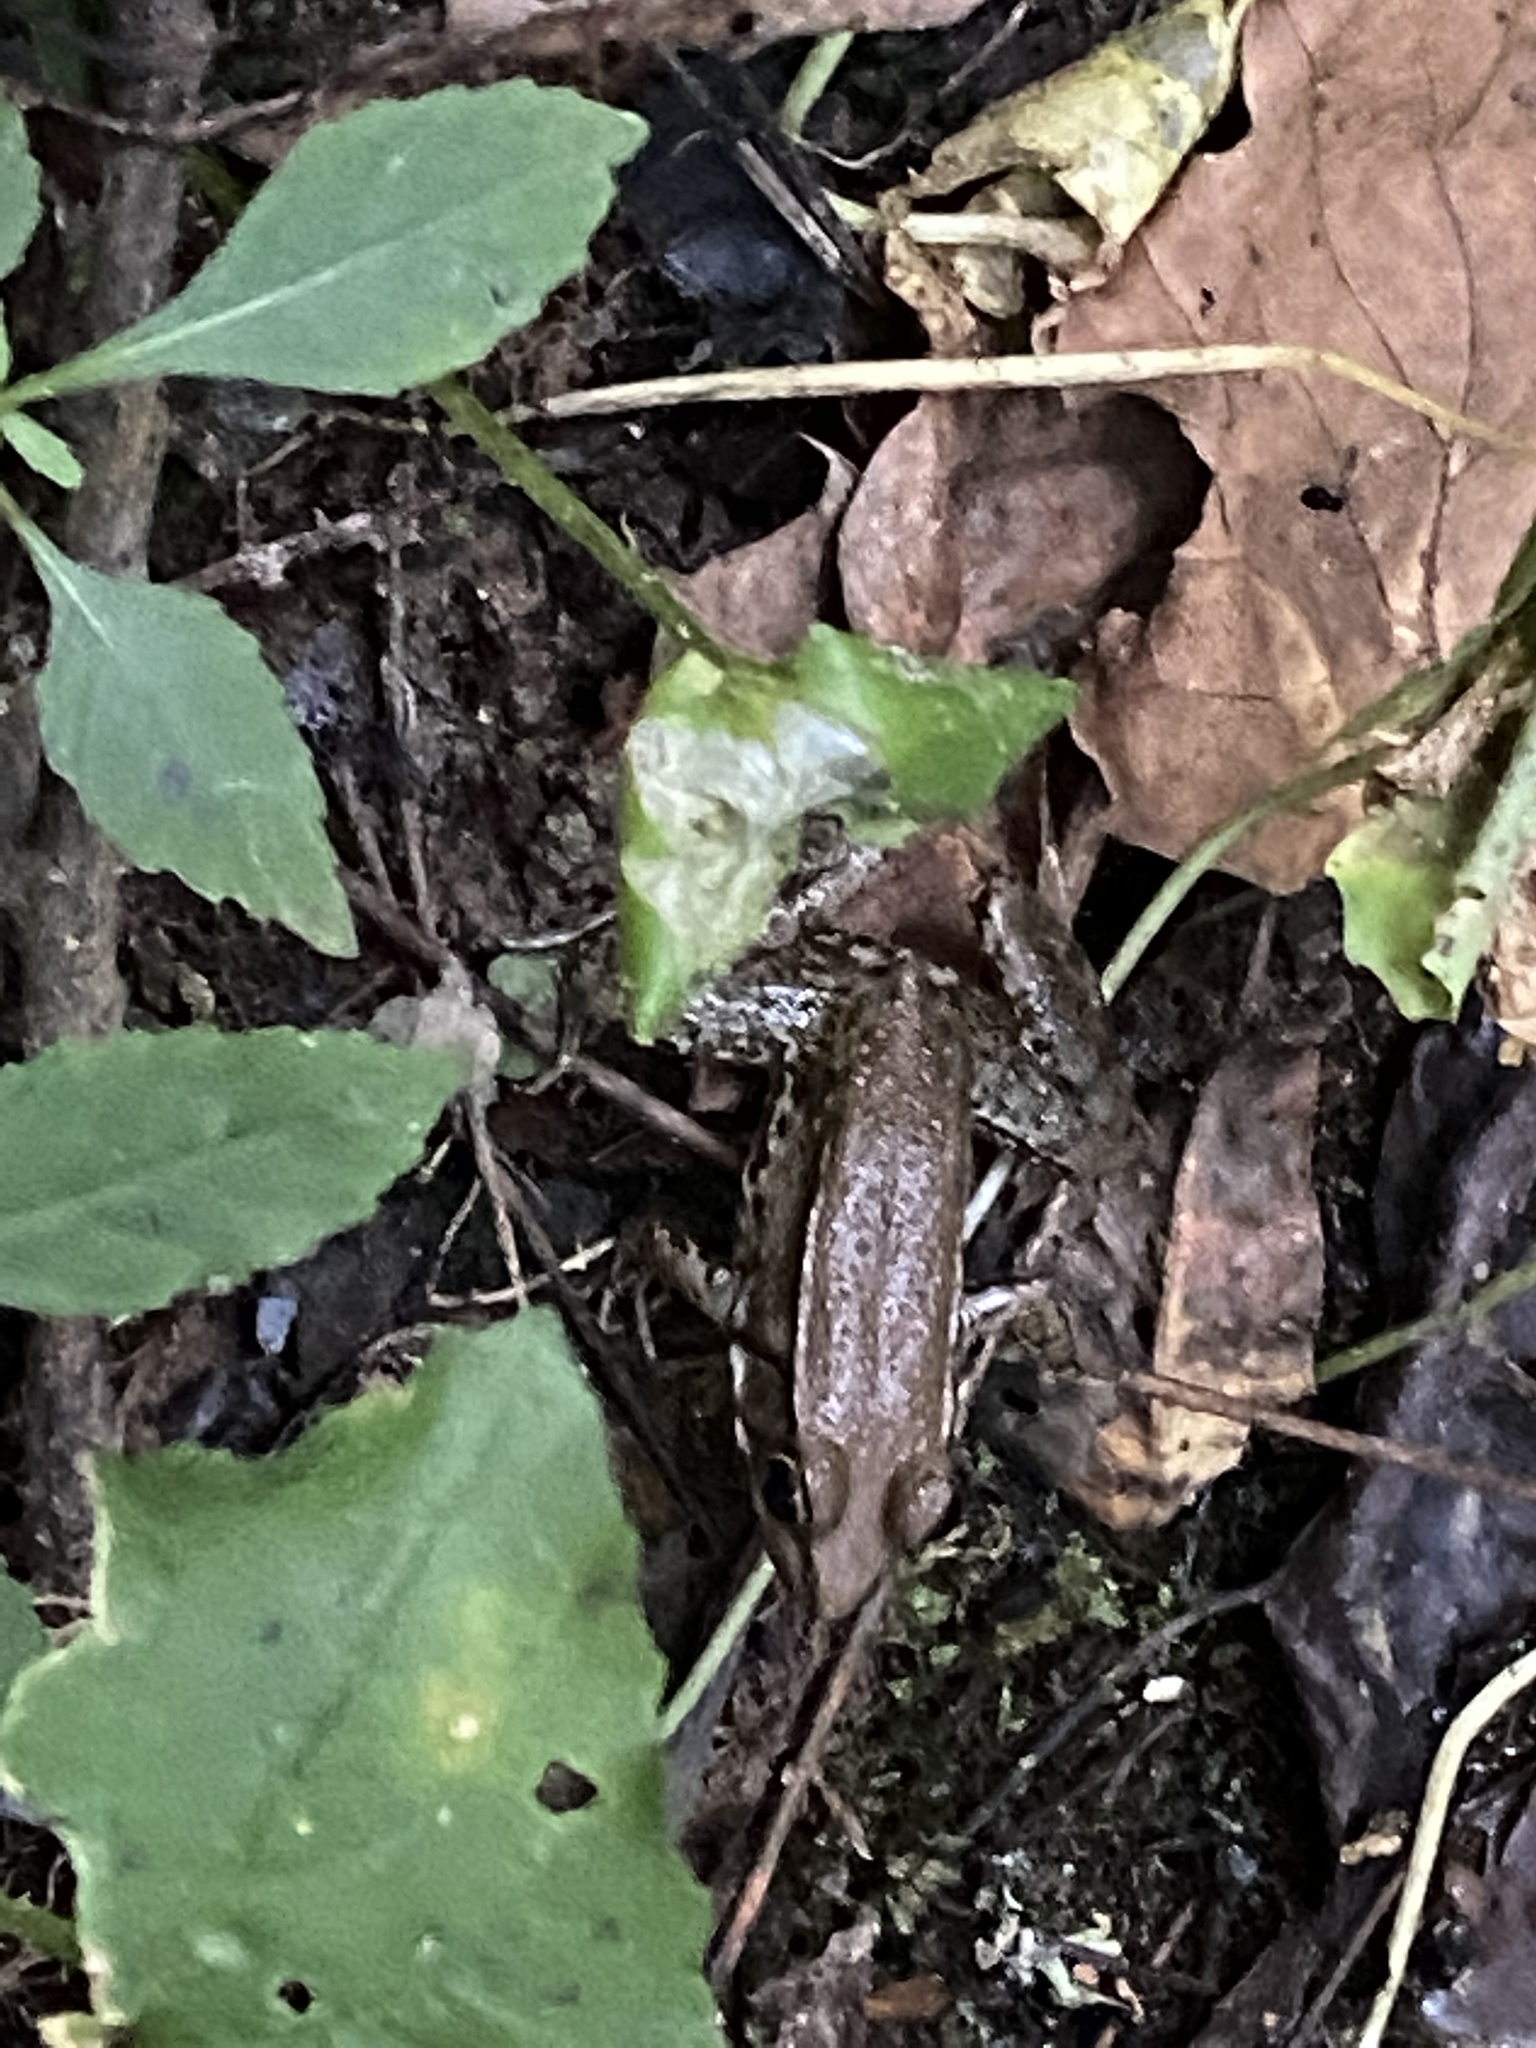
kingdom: Animalia
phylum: Chordata
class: Amphibia
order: Anura
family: Ranidae
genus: Lithobates
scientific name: Lithobates clamitans
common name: Green frog
